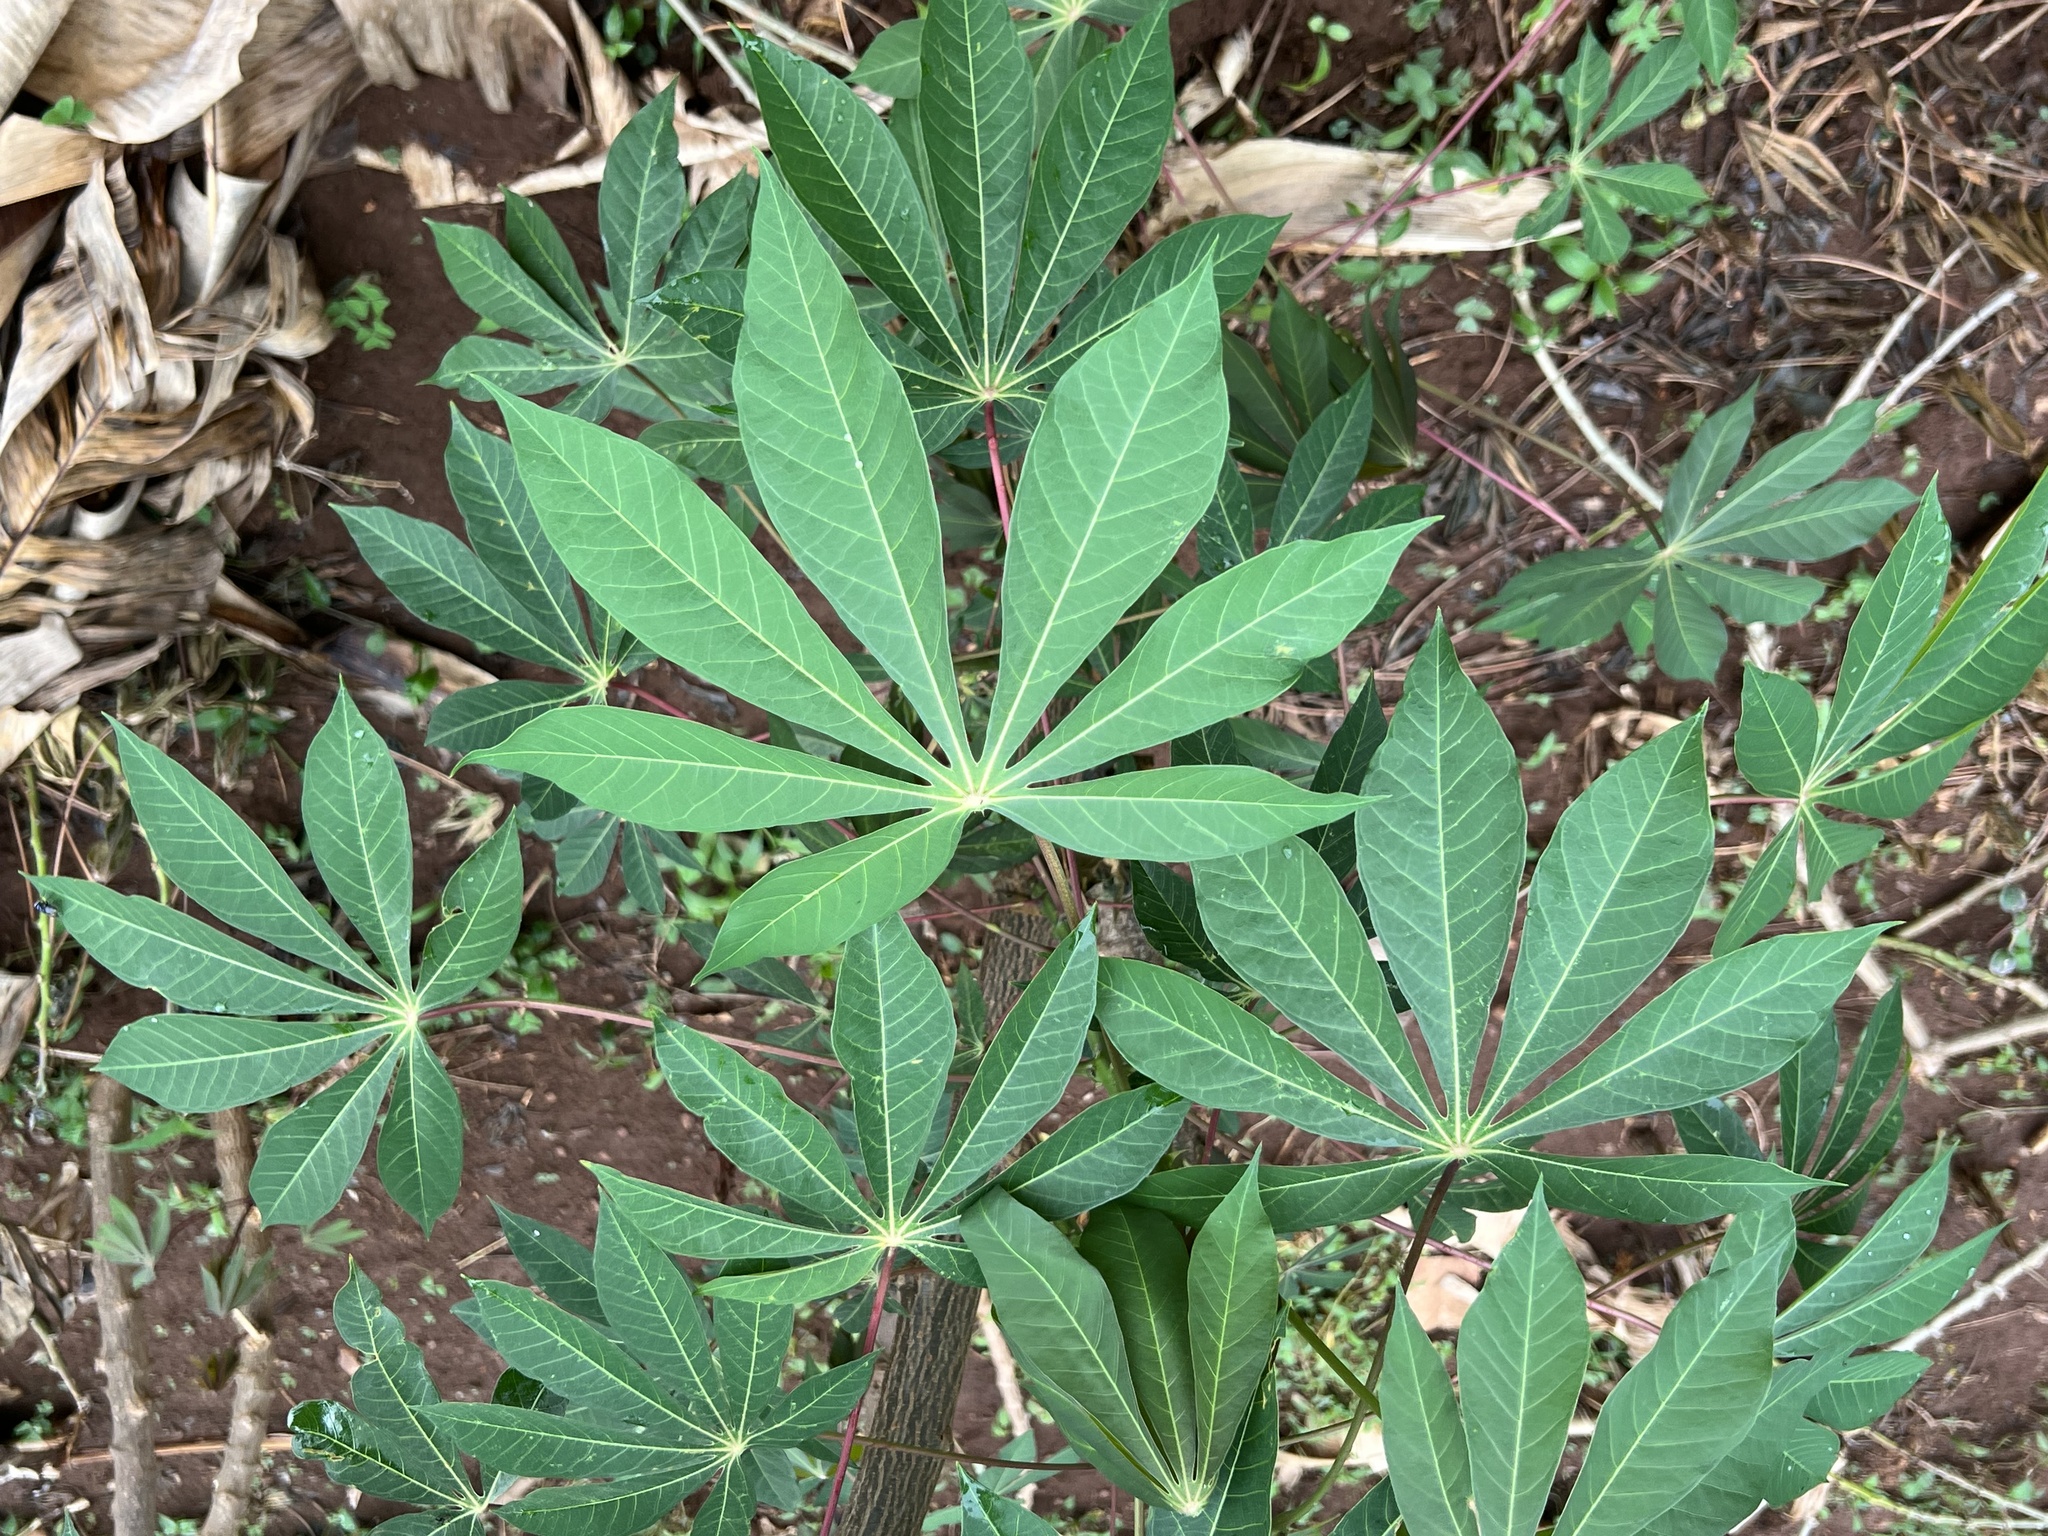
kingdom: Plantae
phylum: Tracheophyta
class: Magnoliopsida
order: Malpighiales
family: Euphorbiaceae
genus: Manihot
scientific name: Manihot esculenta
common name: Cassava
